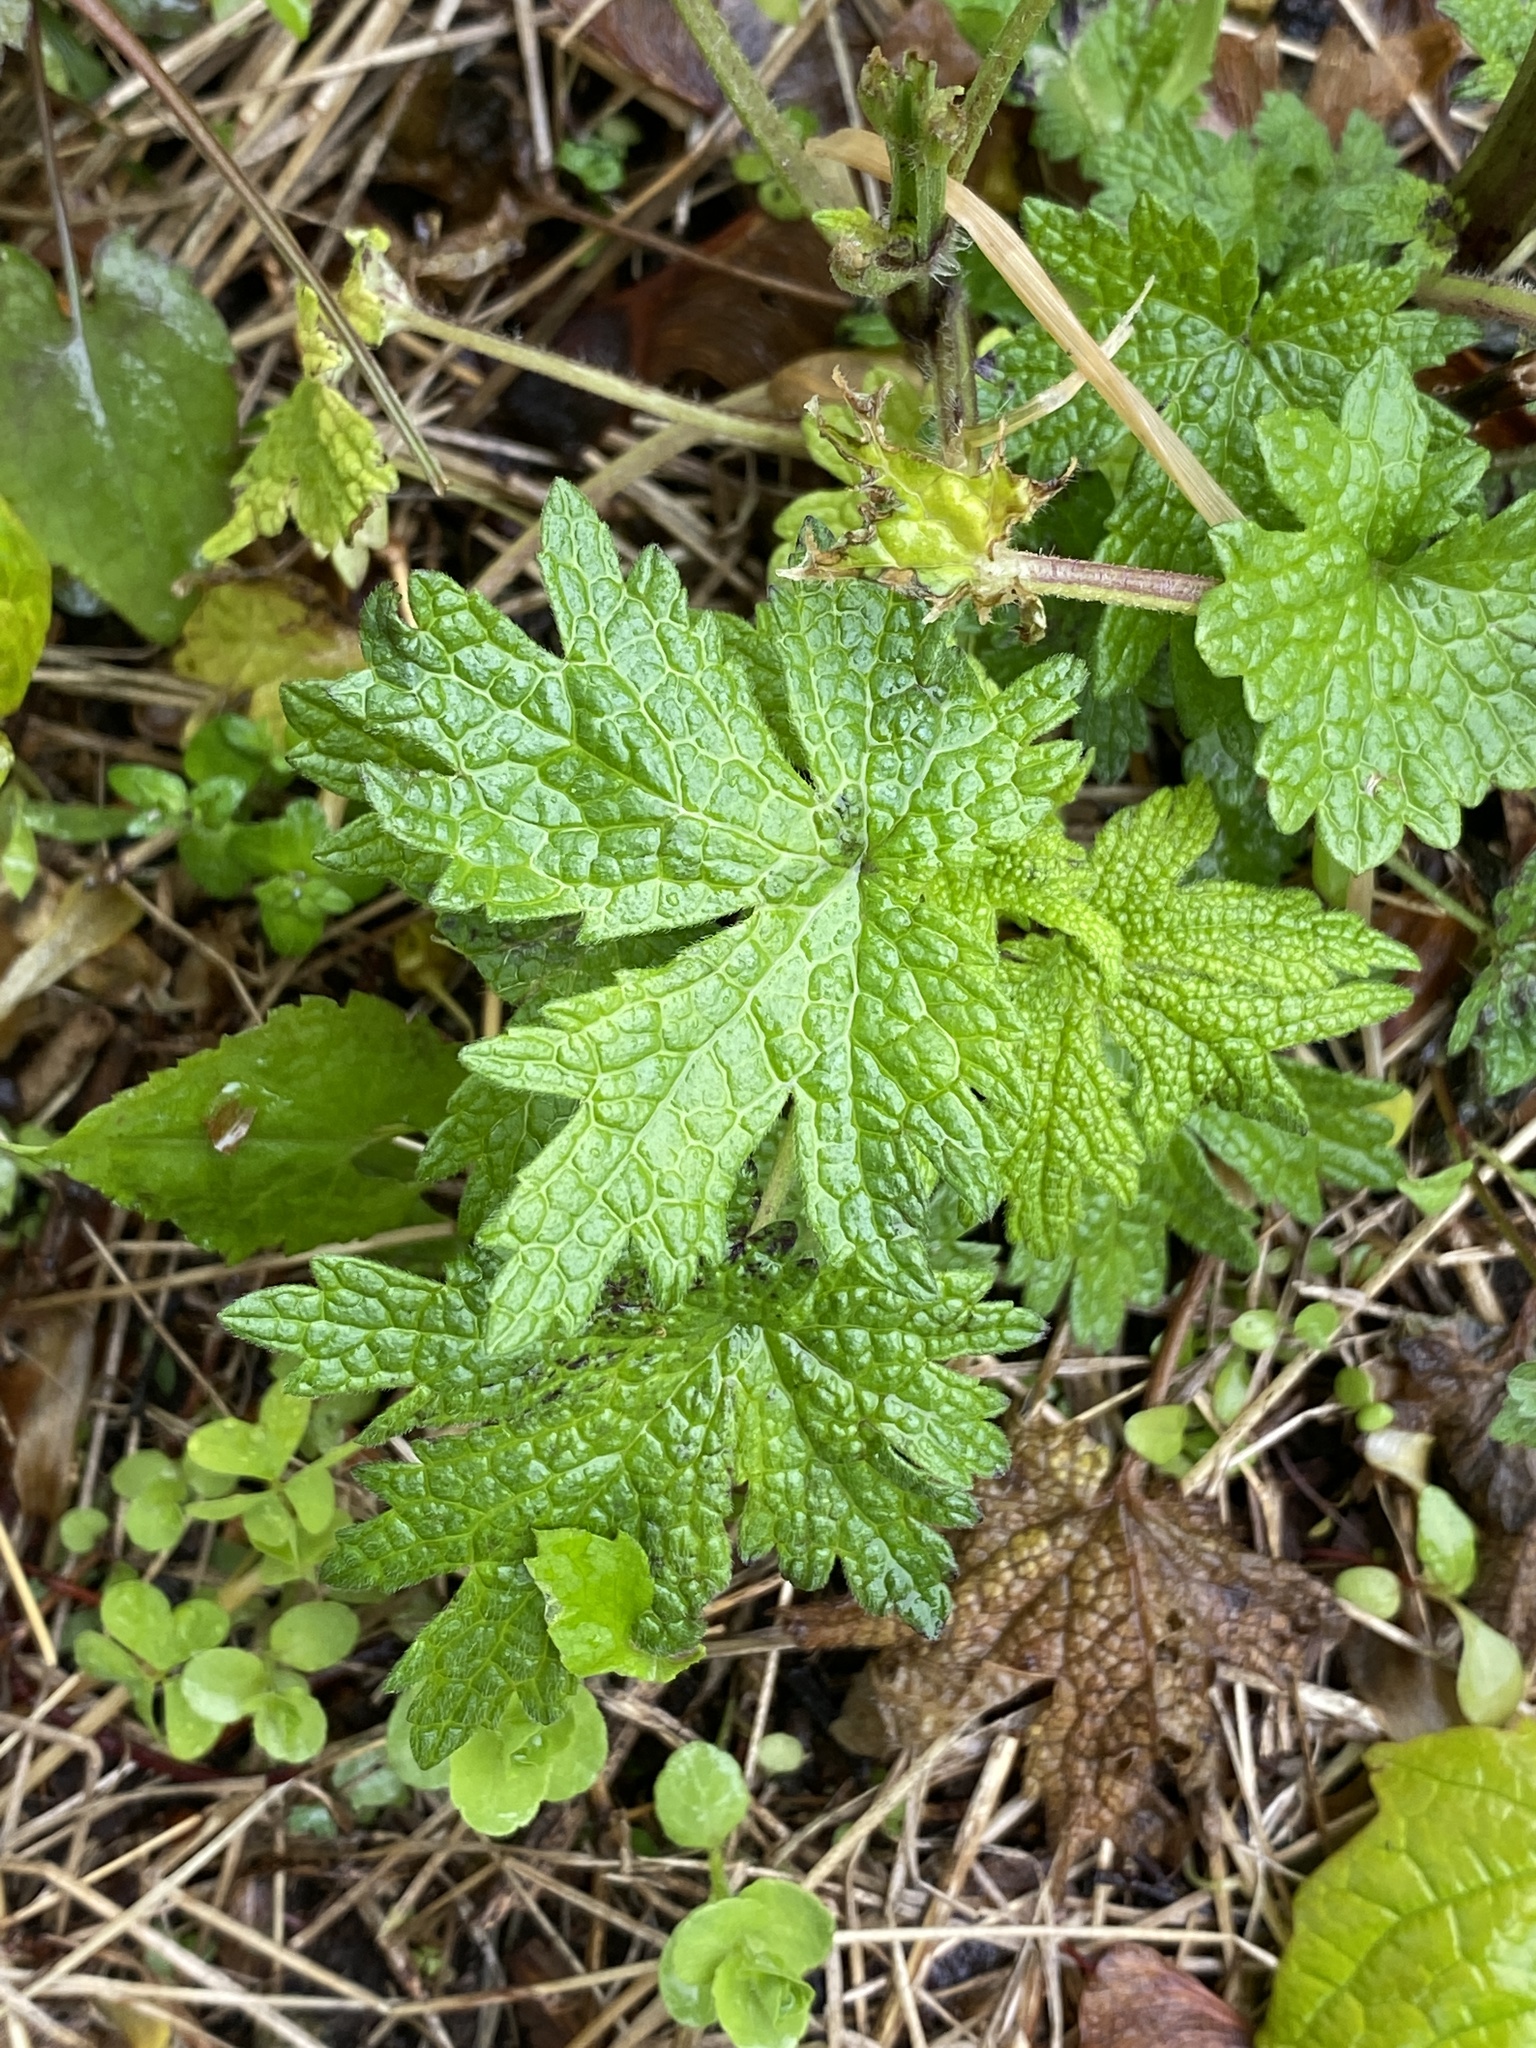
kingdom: Plantae
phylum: Tracheophyta
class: Magnoliopsida
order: Lamiales
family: Lamiaceae
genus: Leonurus
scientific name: Leonurus cardiaca
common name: Motherwort
